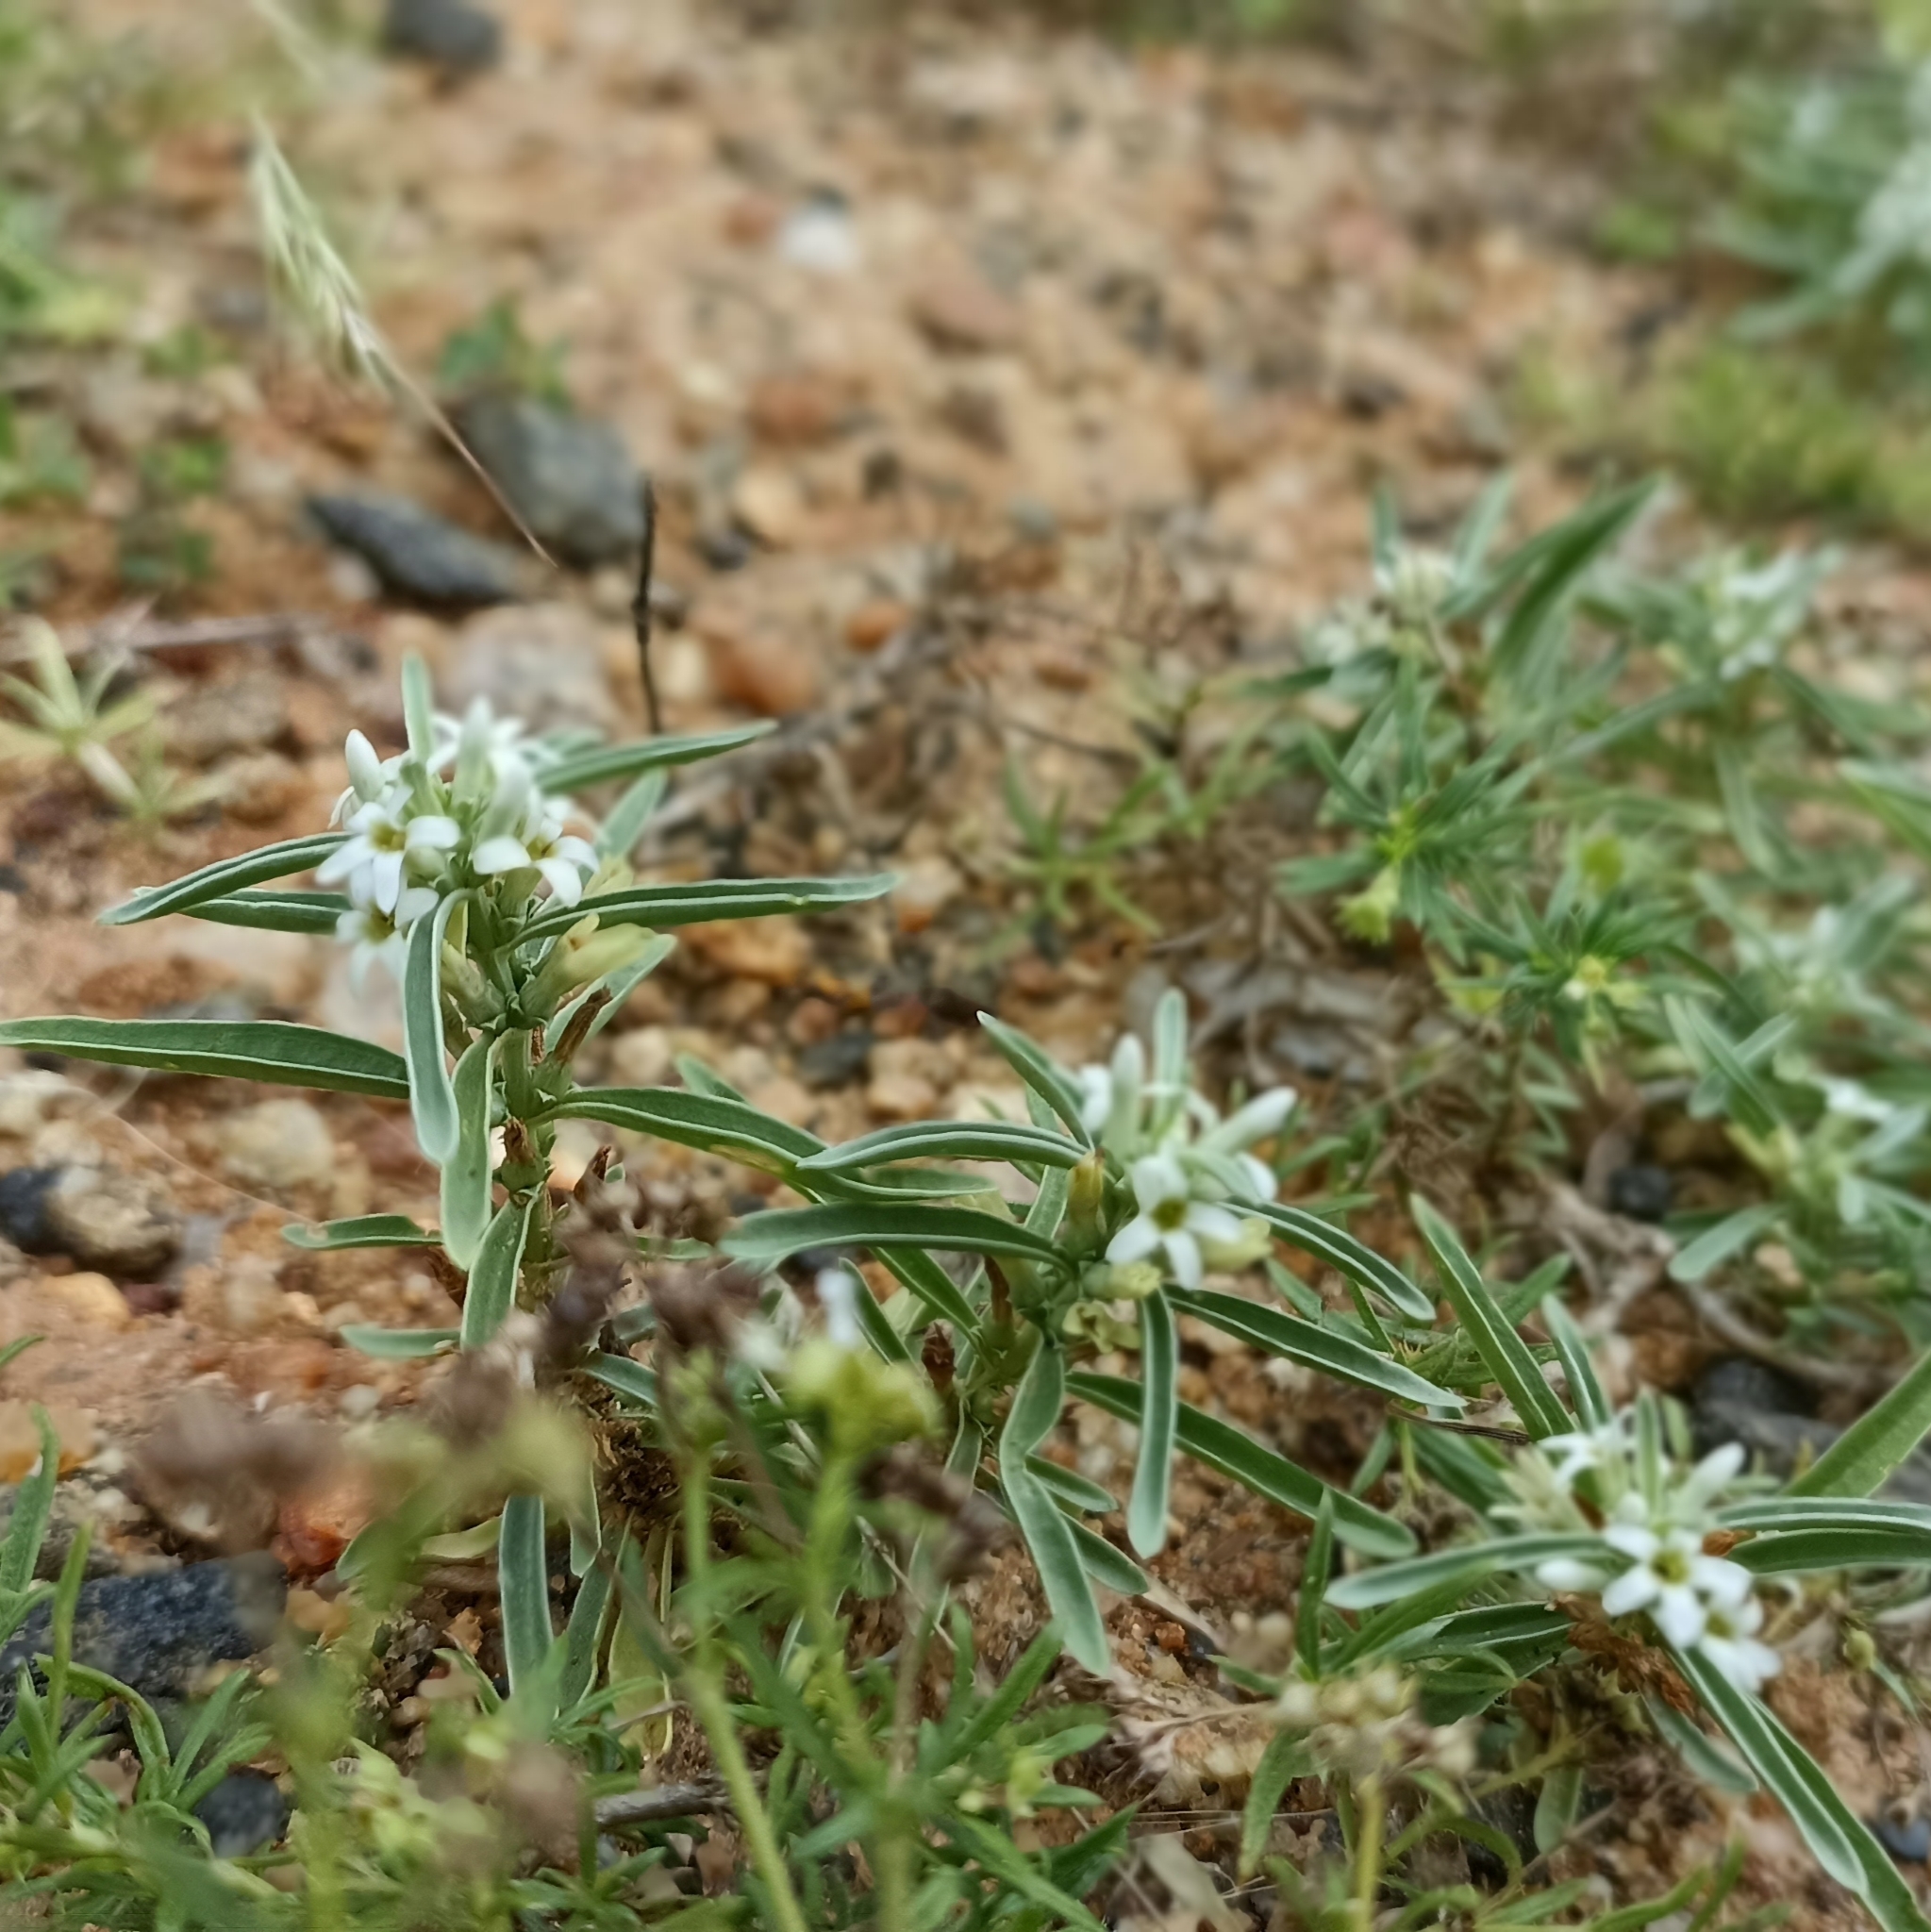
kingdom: Plantae
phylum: Tracheophyta
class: Magnoliopsida
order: Gentianales
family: Gentianaceae
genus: Enicostema
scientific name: Enicostema axillare
